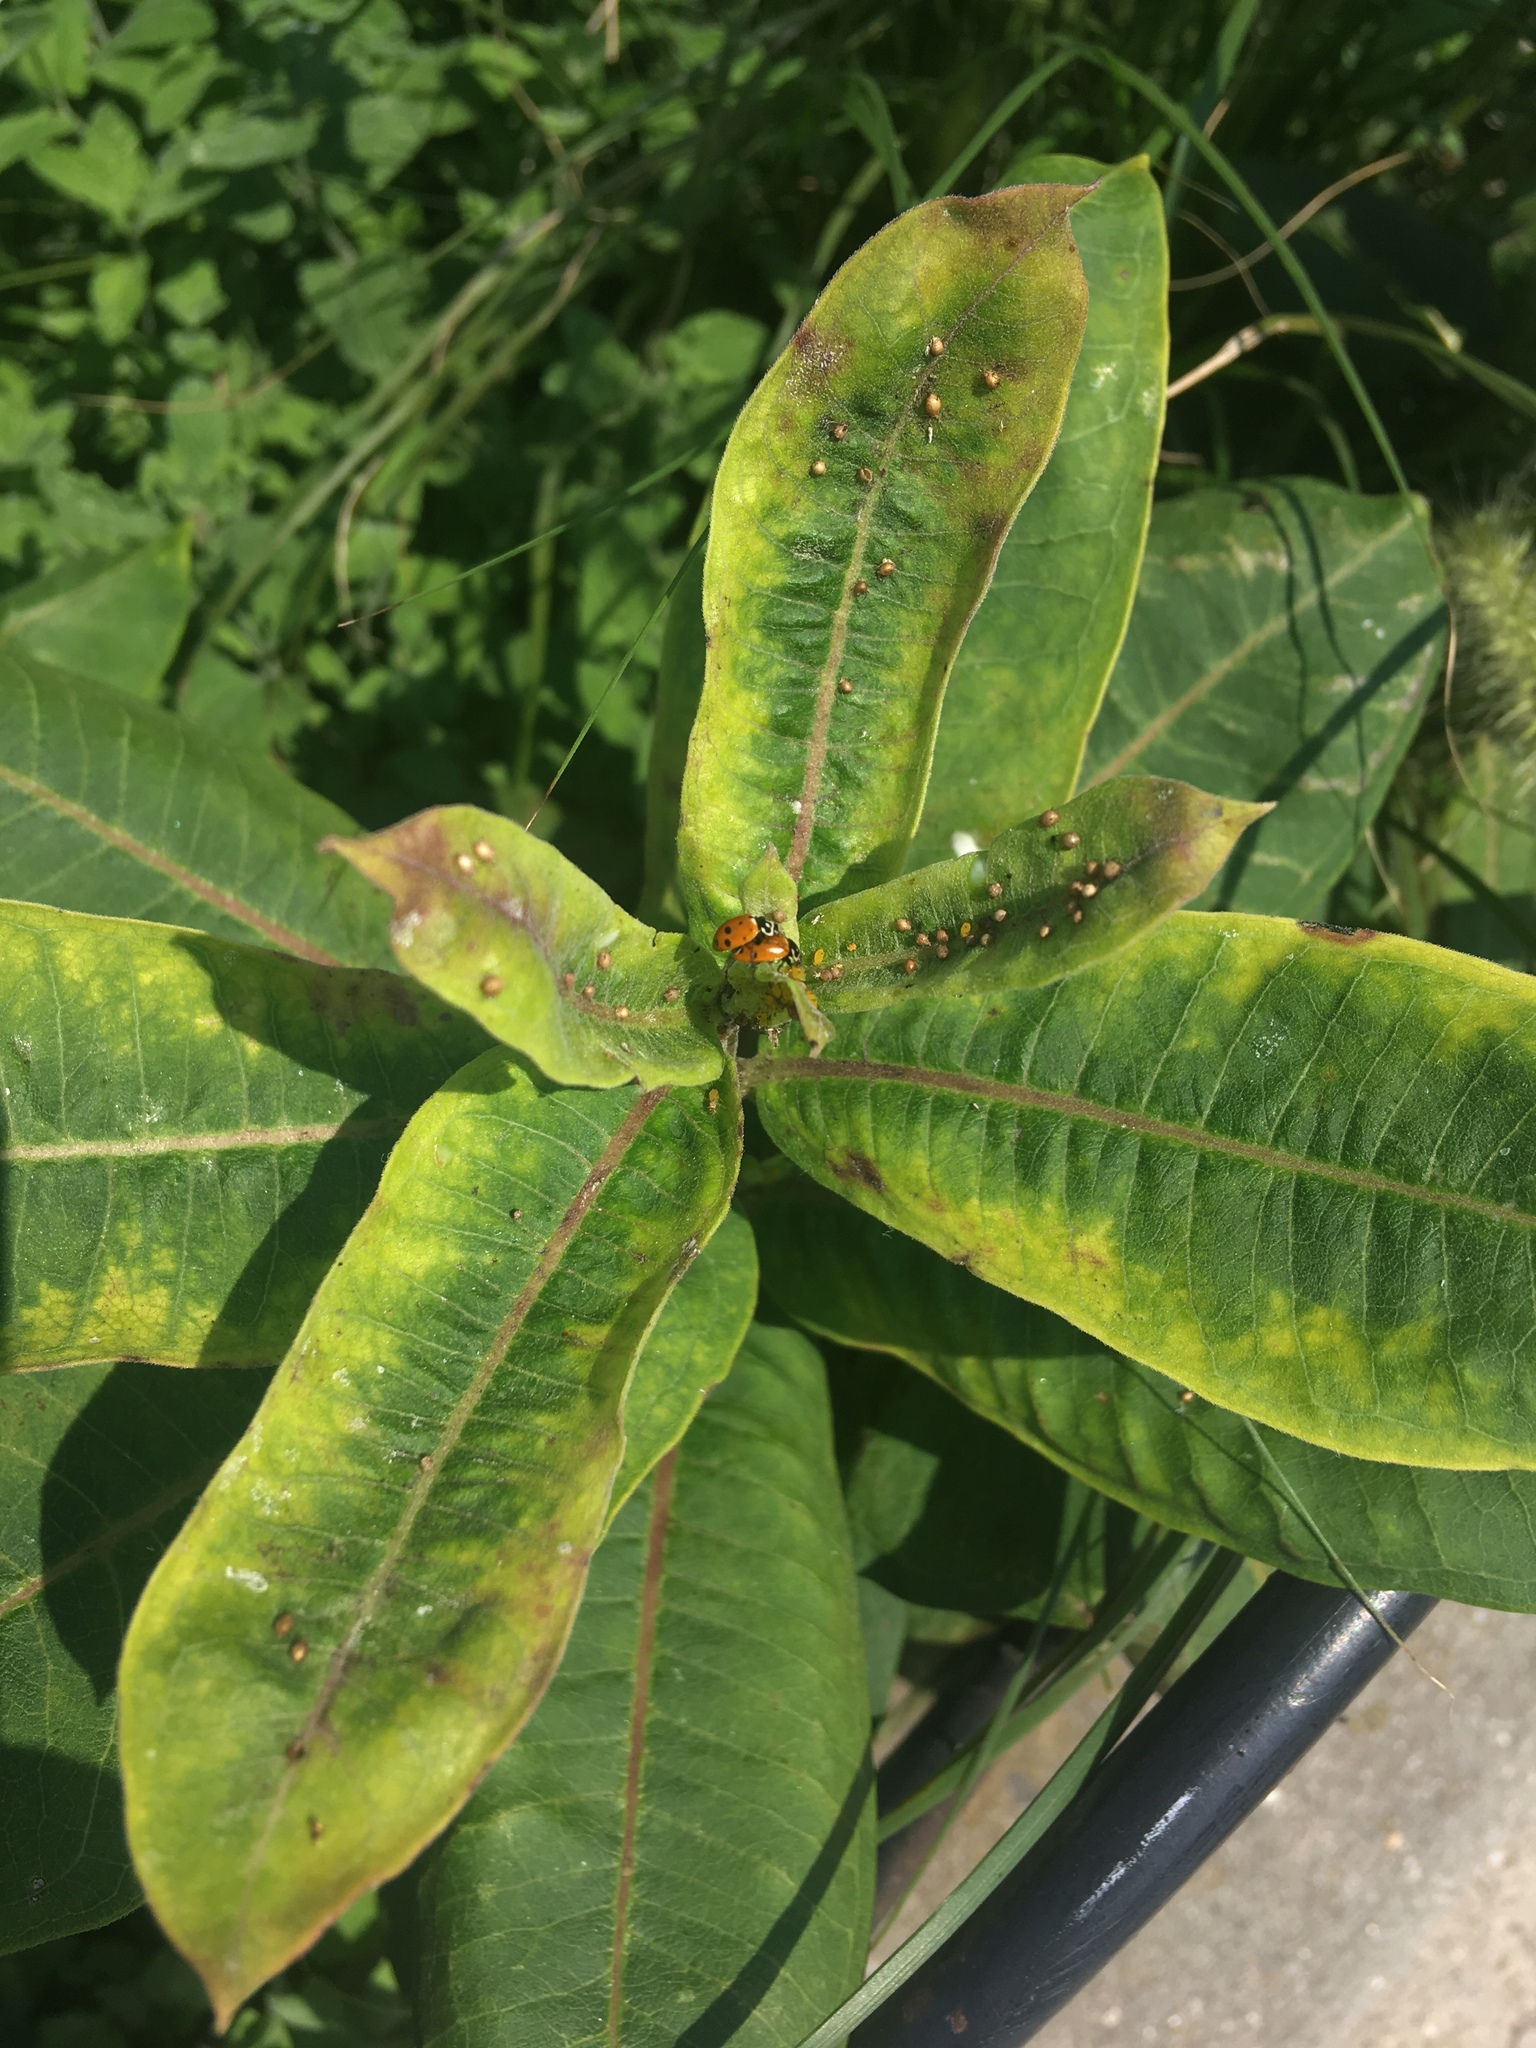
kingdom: Plantae
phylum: Tracheophyta
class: Magnoliopsida
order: Gentianales
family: Apocynaceae
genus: Asclepias
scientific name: Asclepias syriaca
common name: Common milkweed
